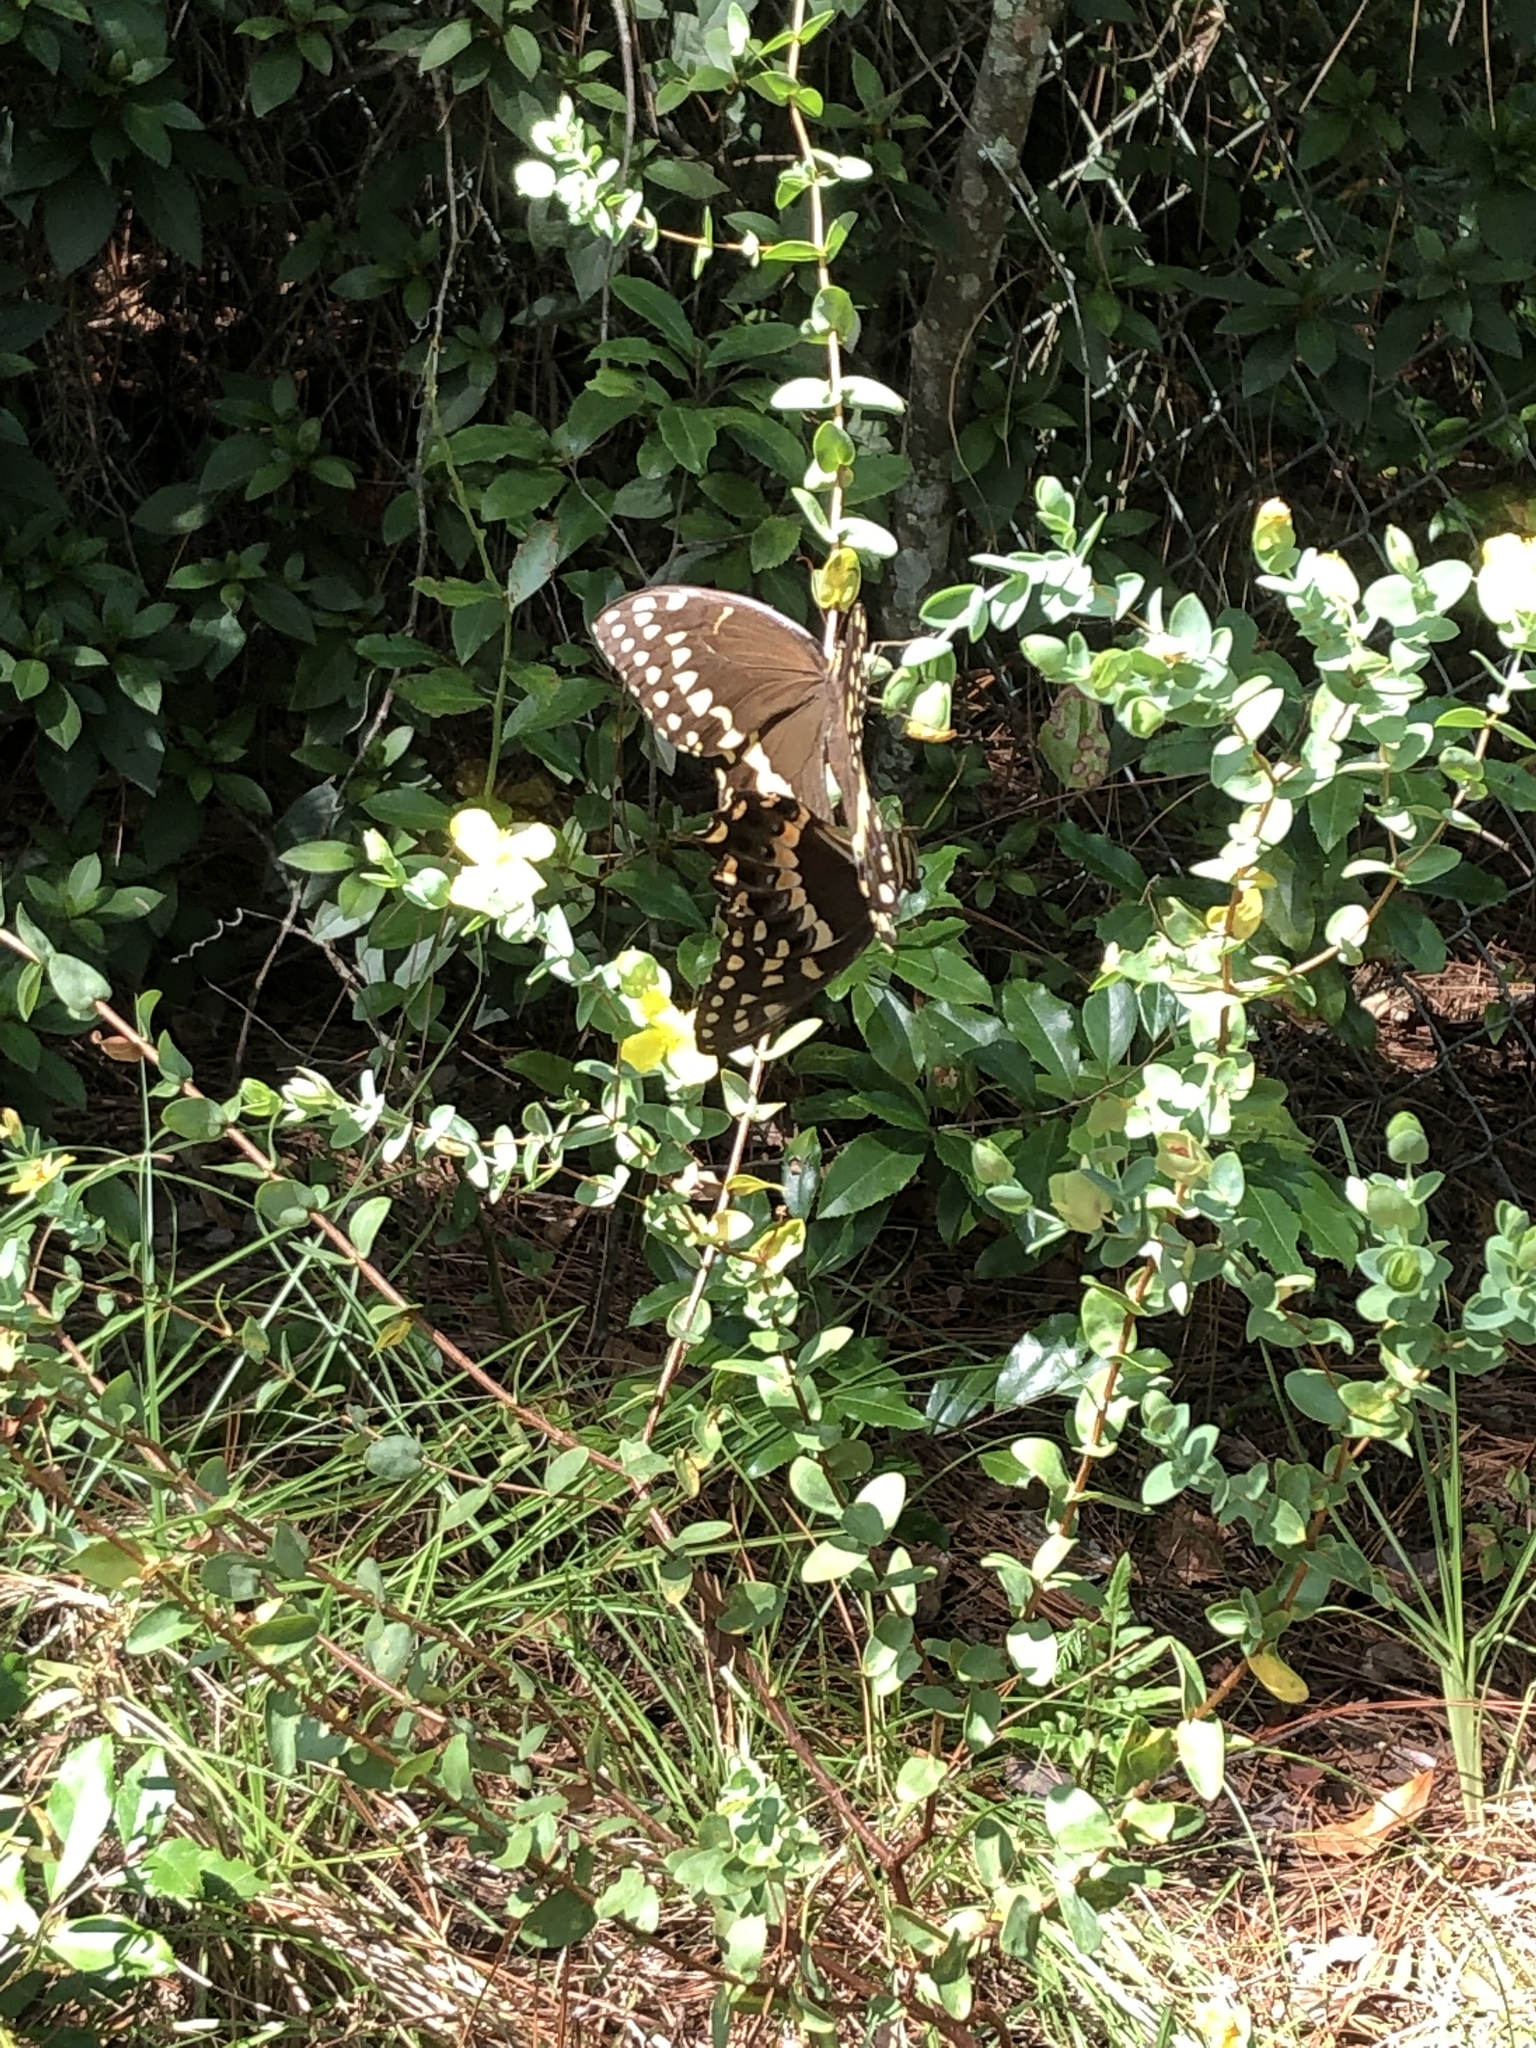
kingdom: Animalia
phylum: Arthropoda
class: Insecta
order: Lepidoptera
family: Papilionidae
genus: Papilio
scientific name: Papilio palamedes
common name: Palamedes swallowtail
